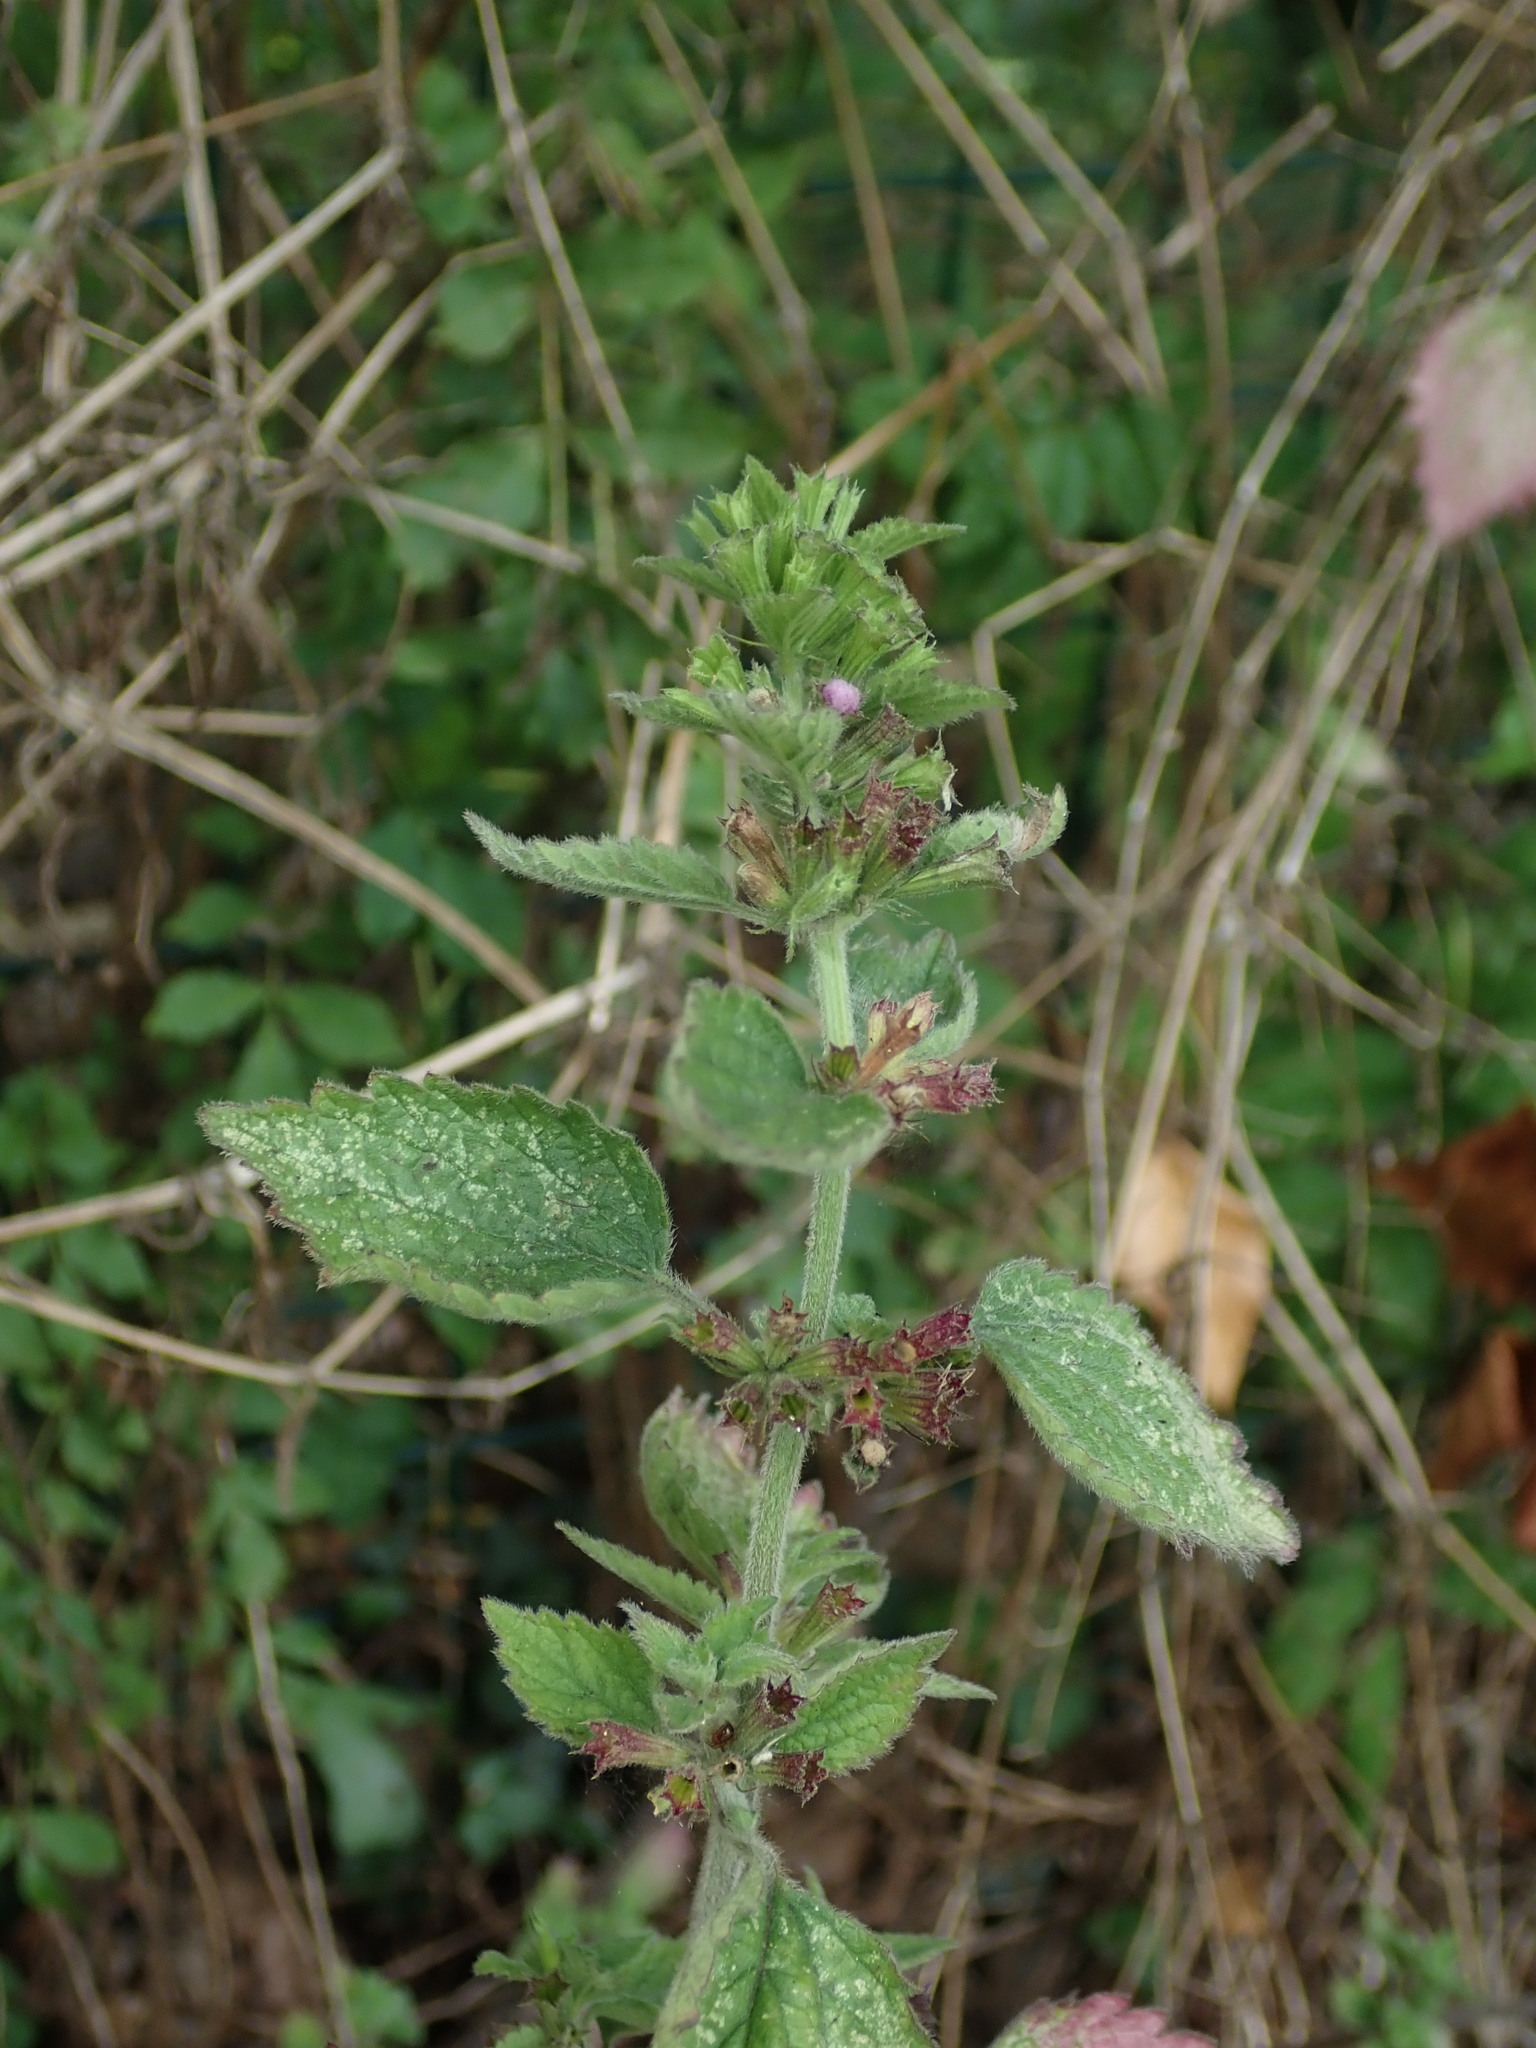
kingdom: Plantae
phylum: Tracheophyta
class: Magnoliopsida
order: Lamiales
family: Lamiaceae
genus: Ballota
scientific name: Ballota nigra
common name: Black horehound
